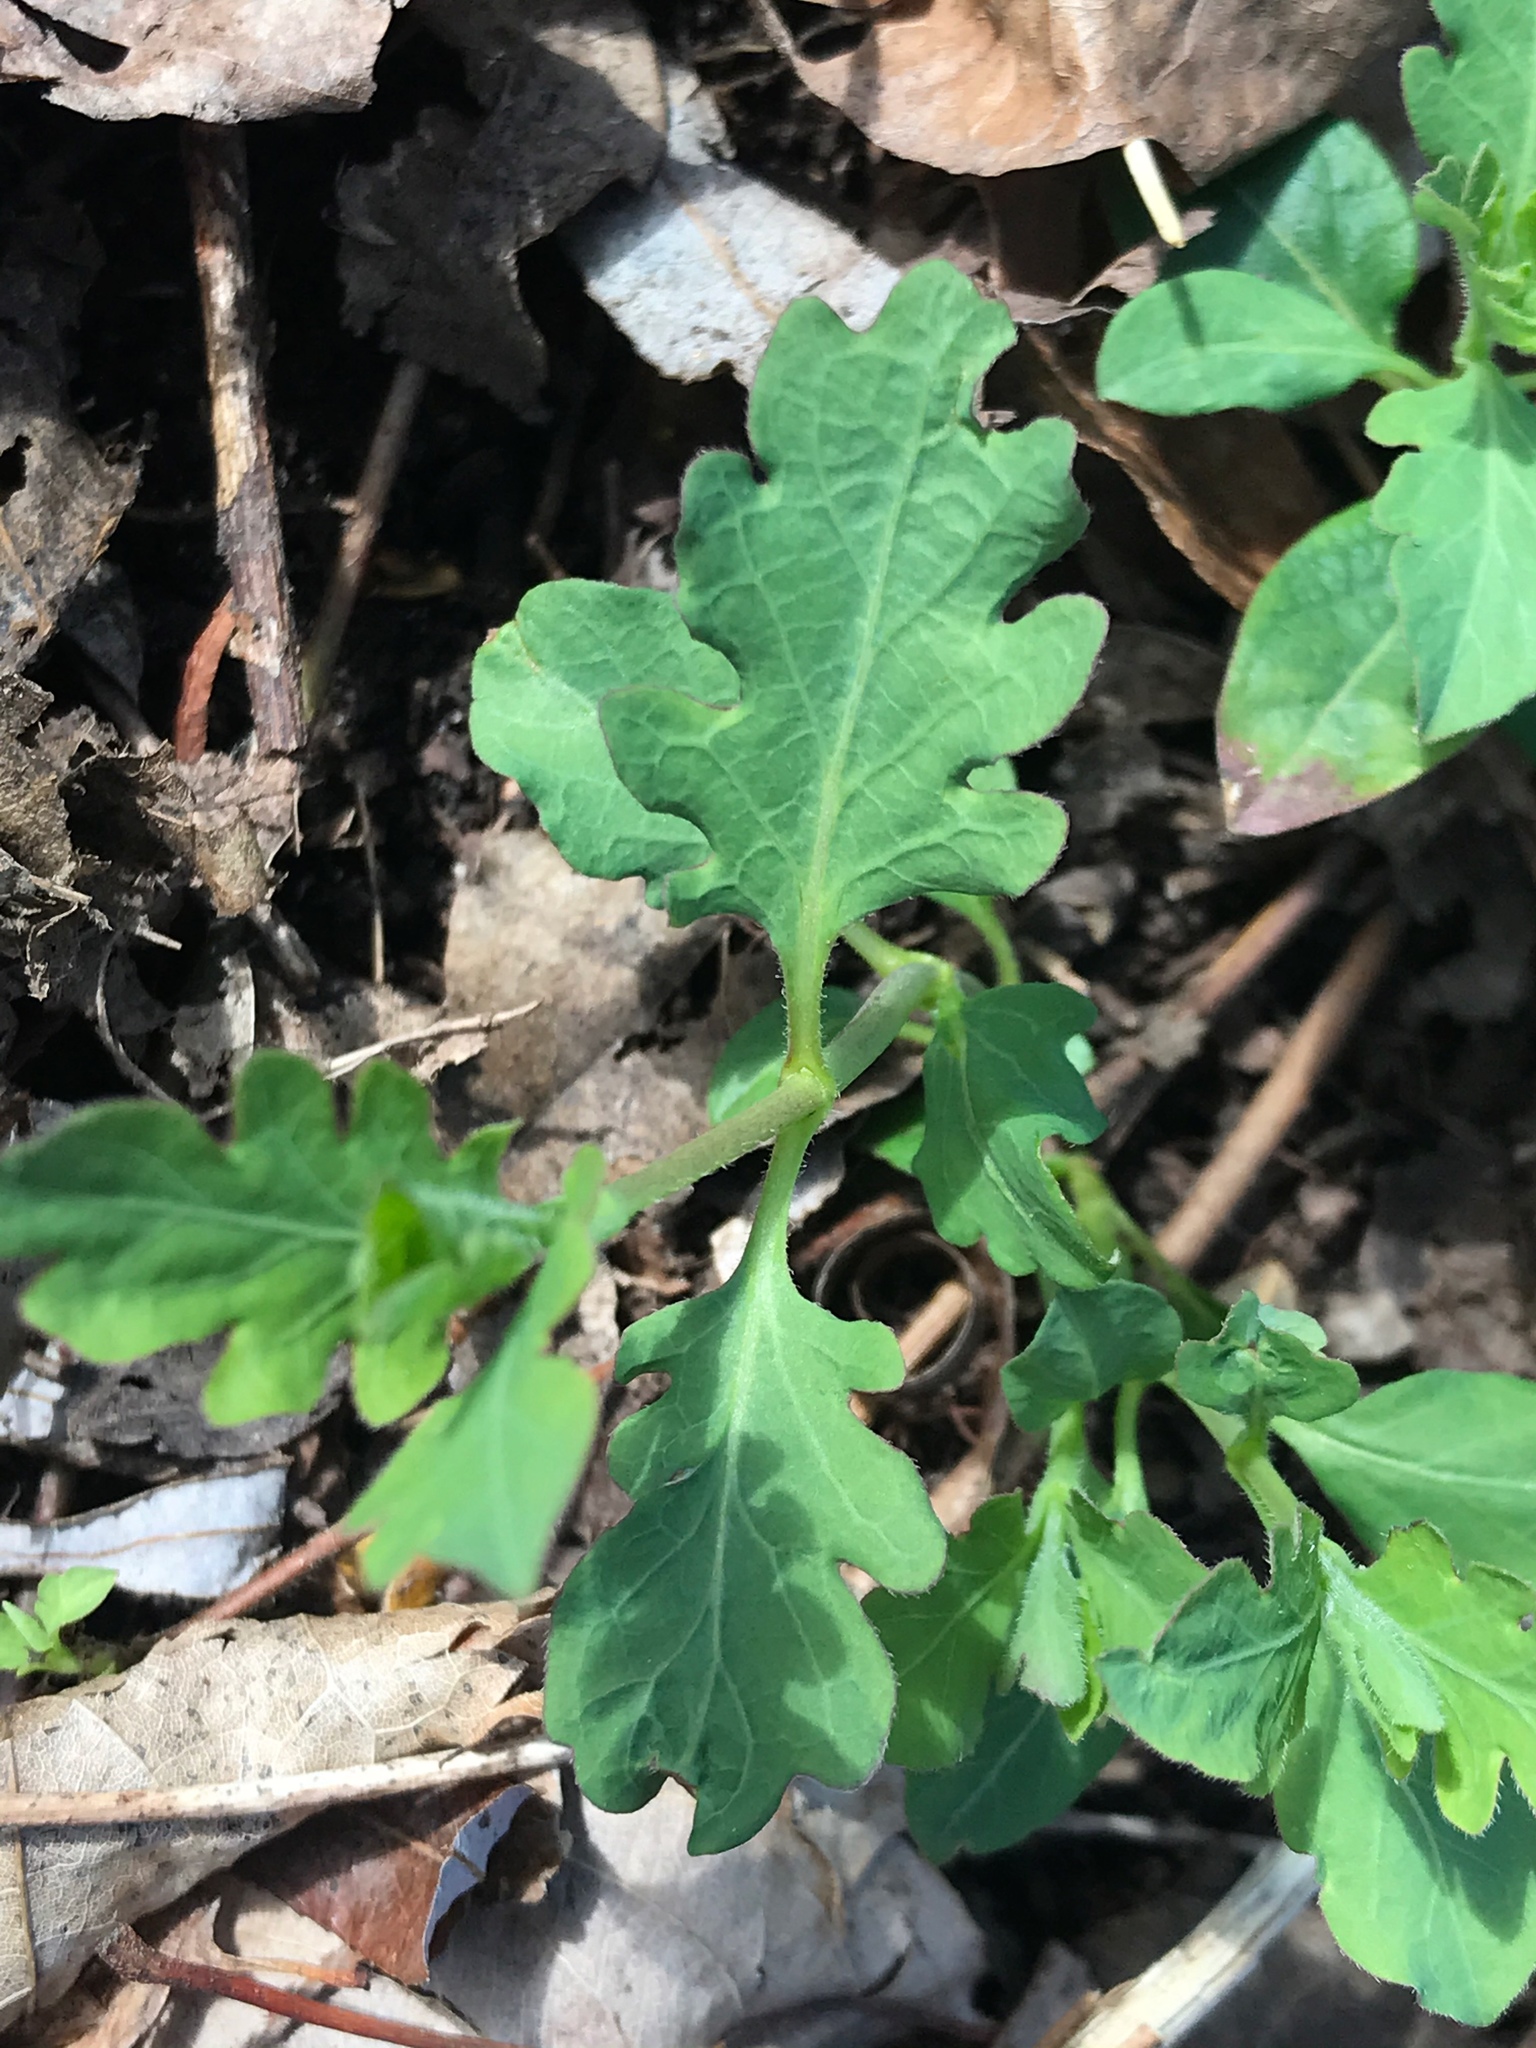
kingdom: Plantae
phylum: Tracheophyta
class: Magnoliopsida
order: Dipsacales
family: Caprifoliaceae
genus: Lonicera
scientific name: Lonicera japonica
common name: Japanese honeysuckle
